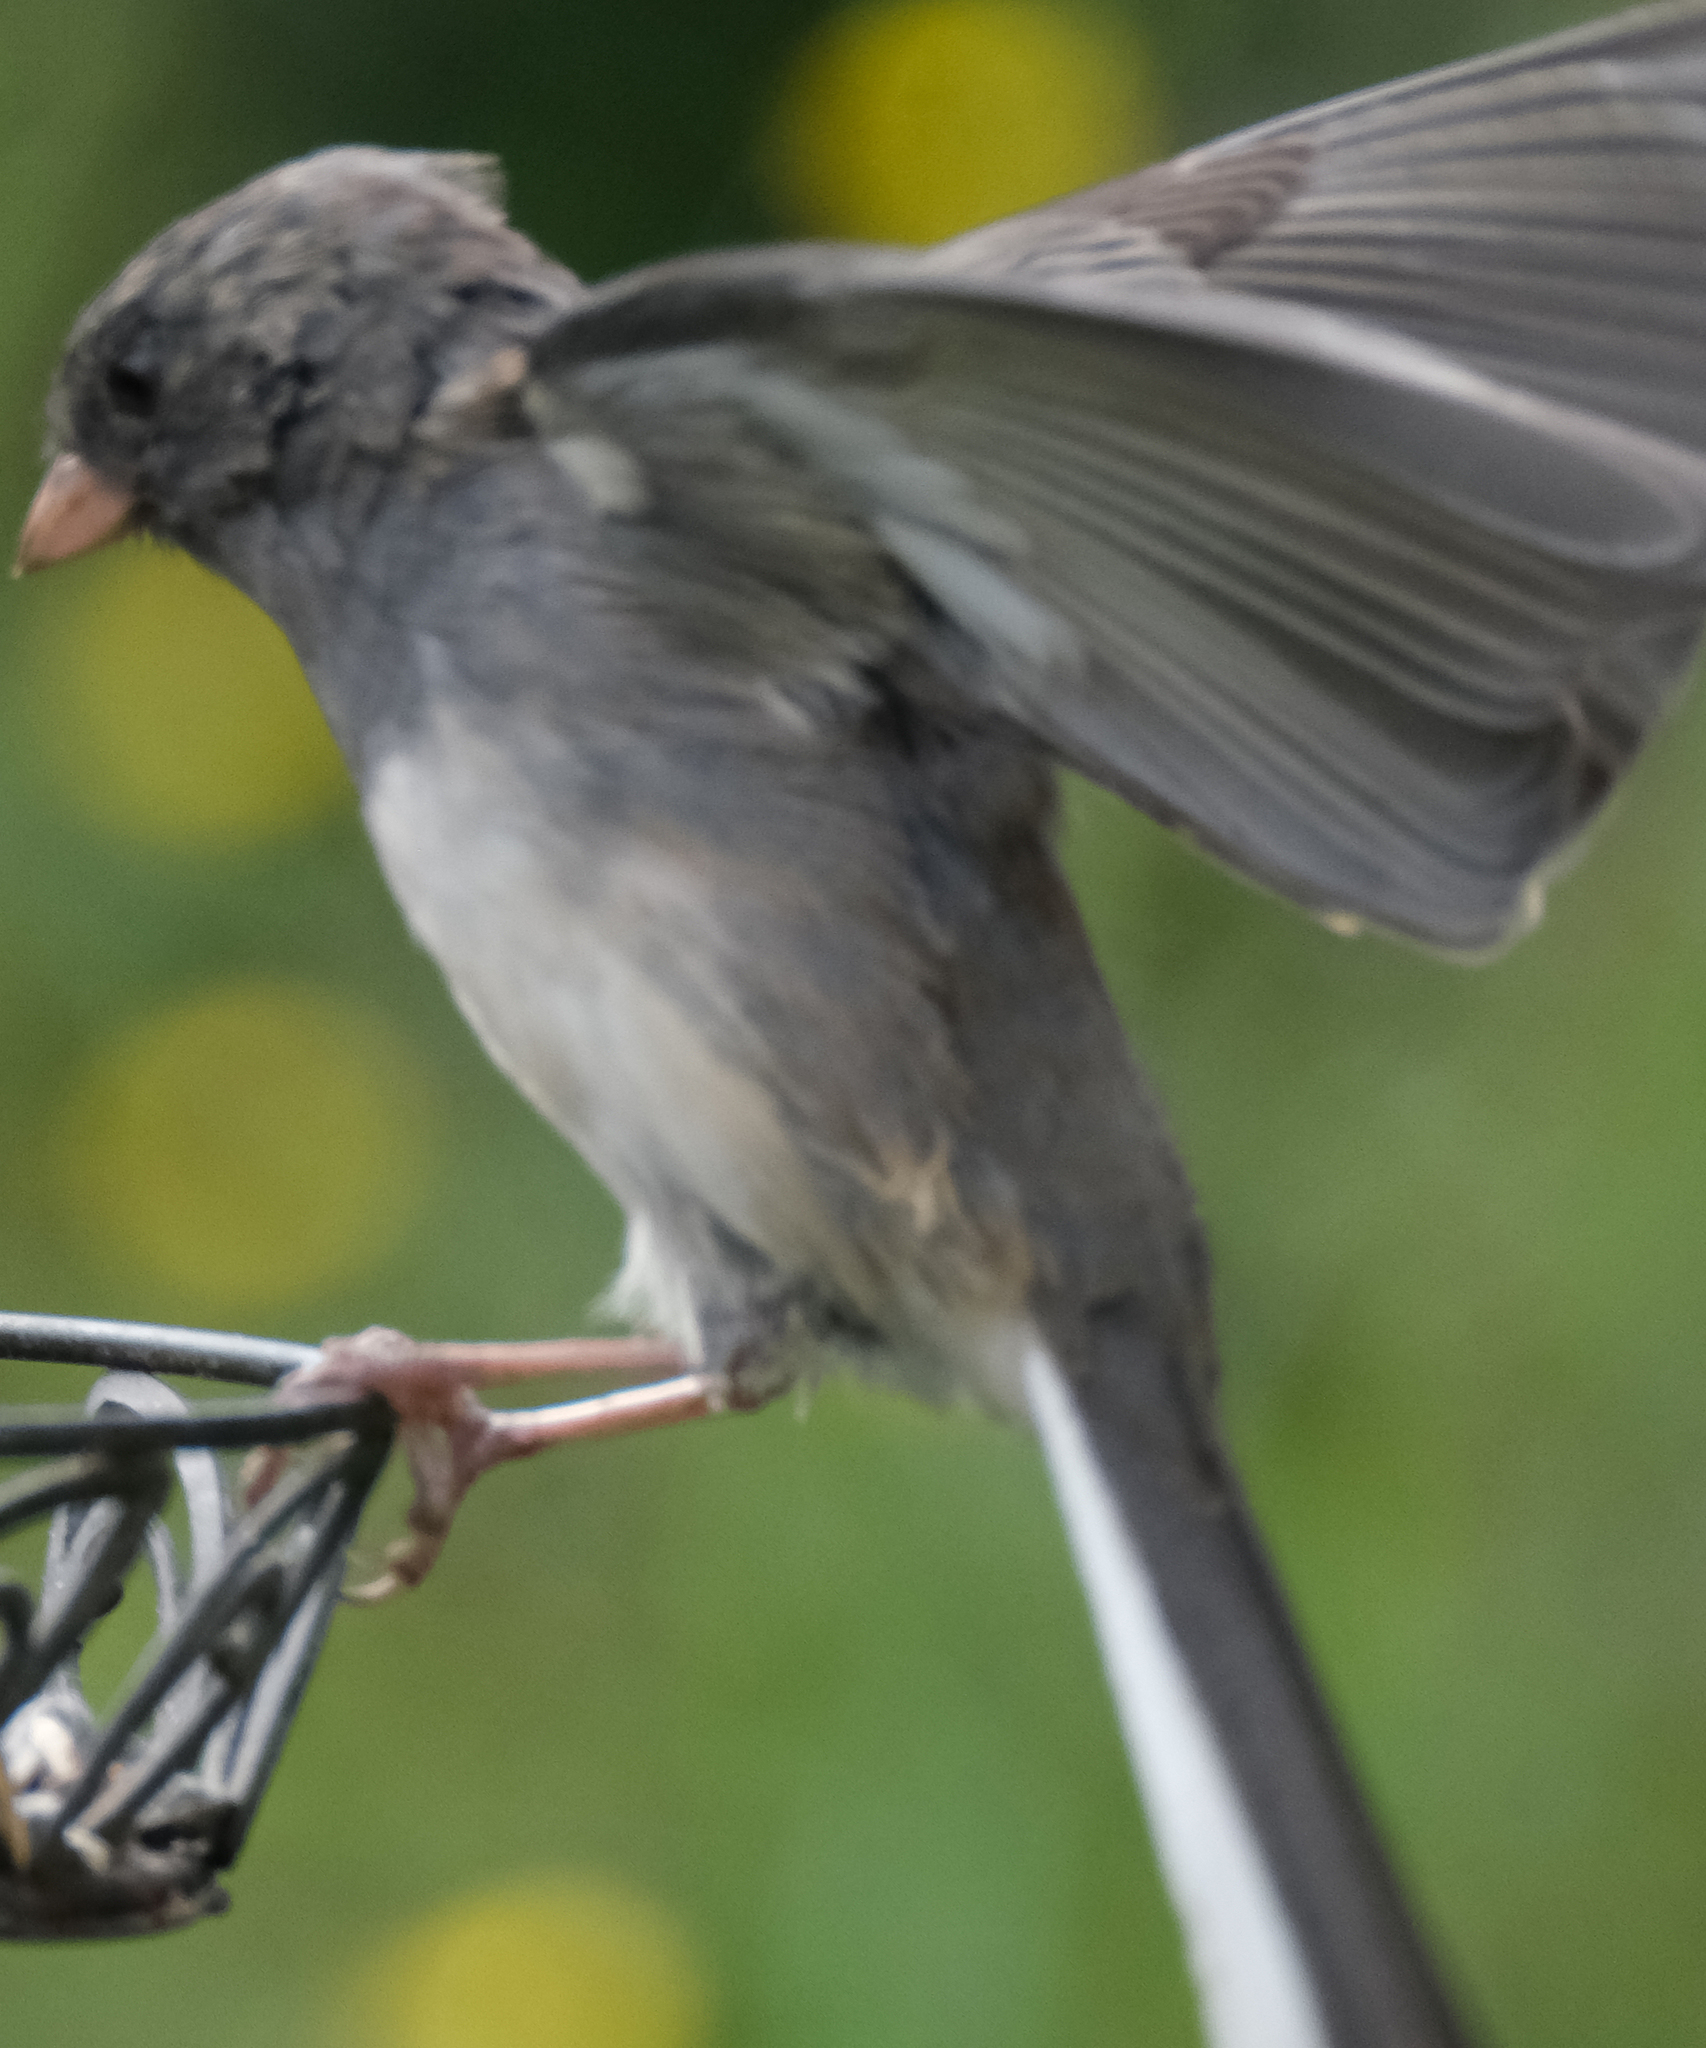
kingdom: Animalia
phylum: Chordata
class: Aves
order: Passeriformes
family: Passerellidae
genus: Junco
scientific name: Junco hyemalis
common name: Dark-eyed junco
